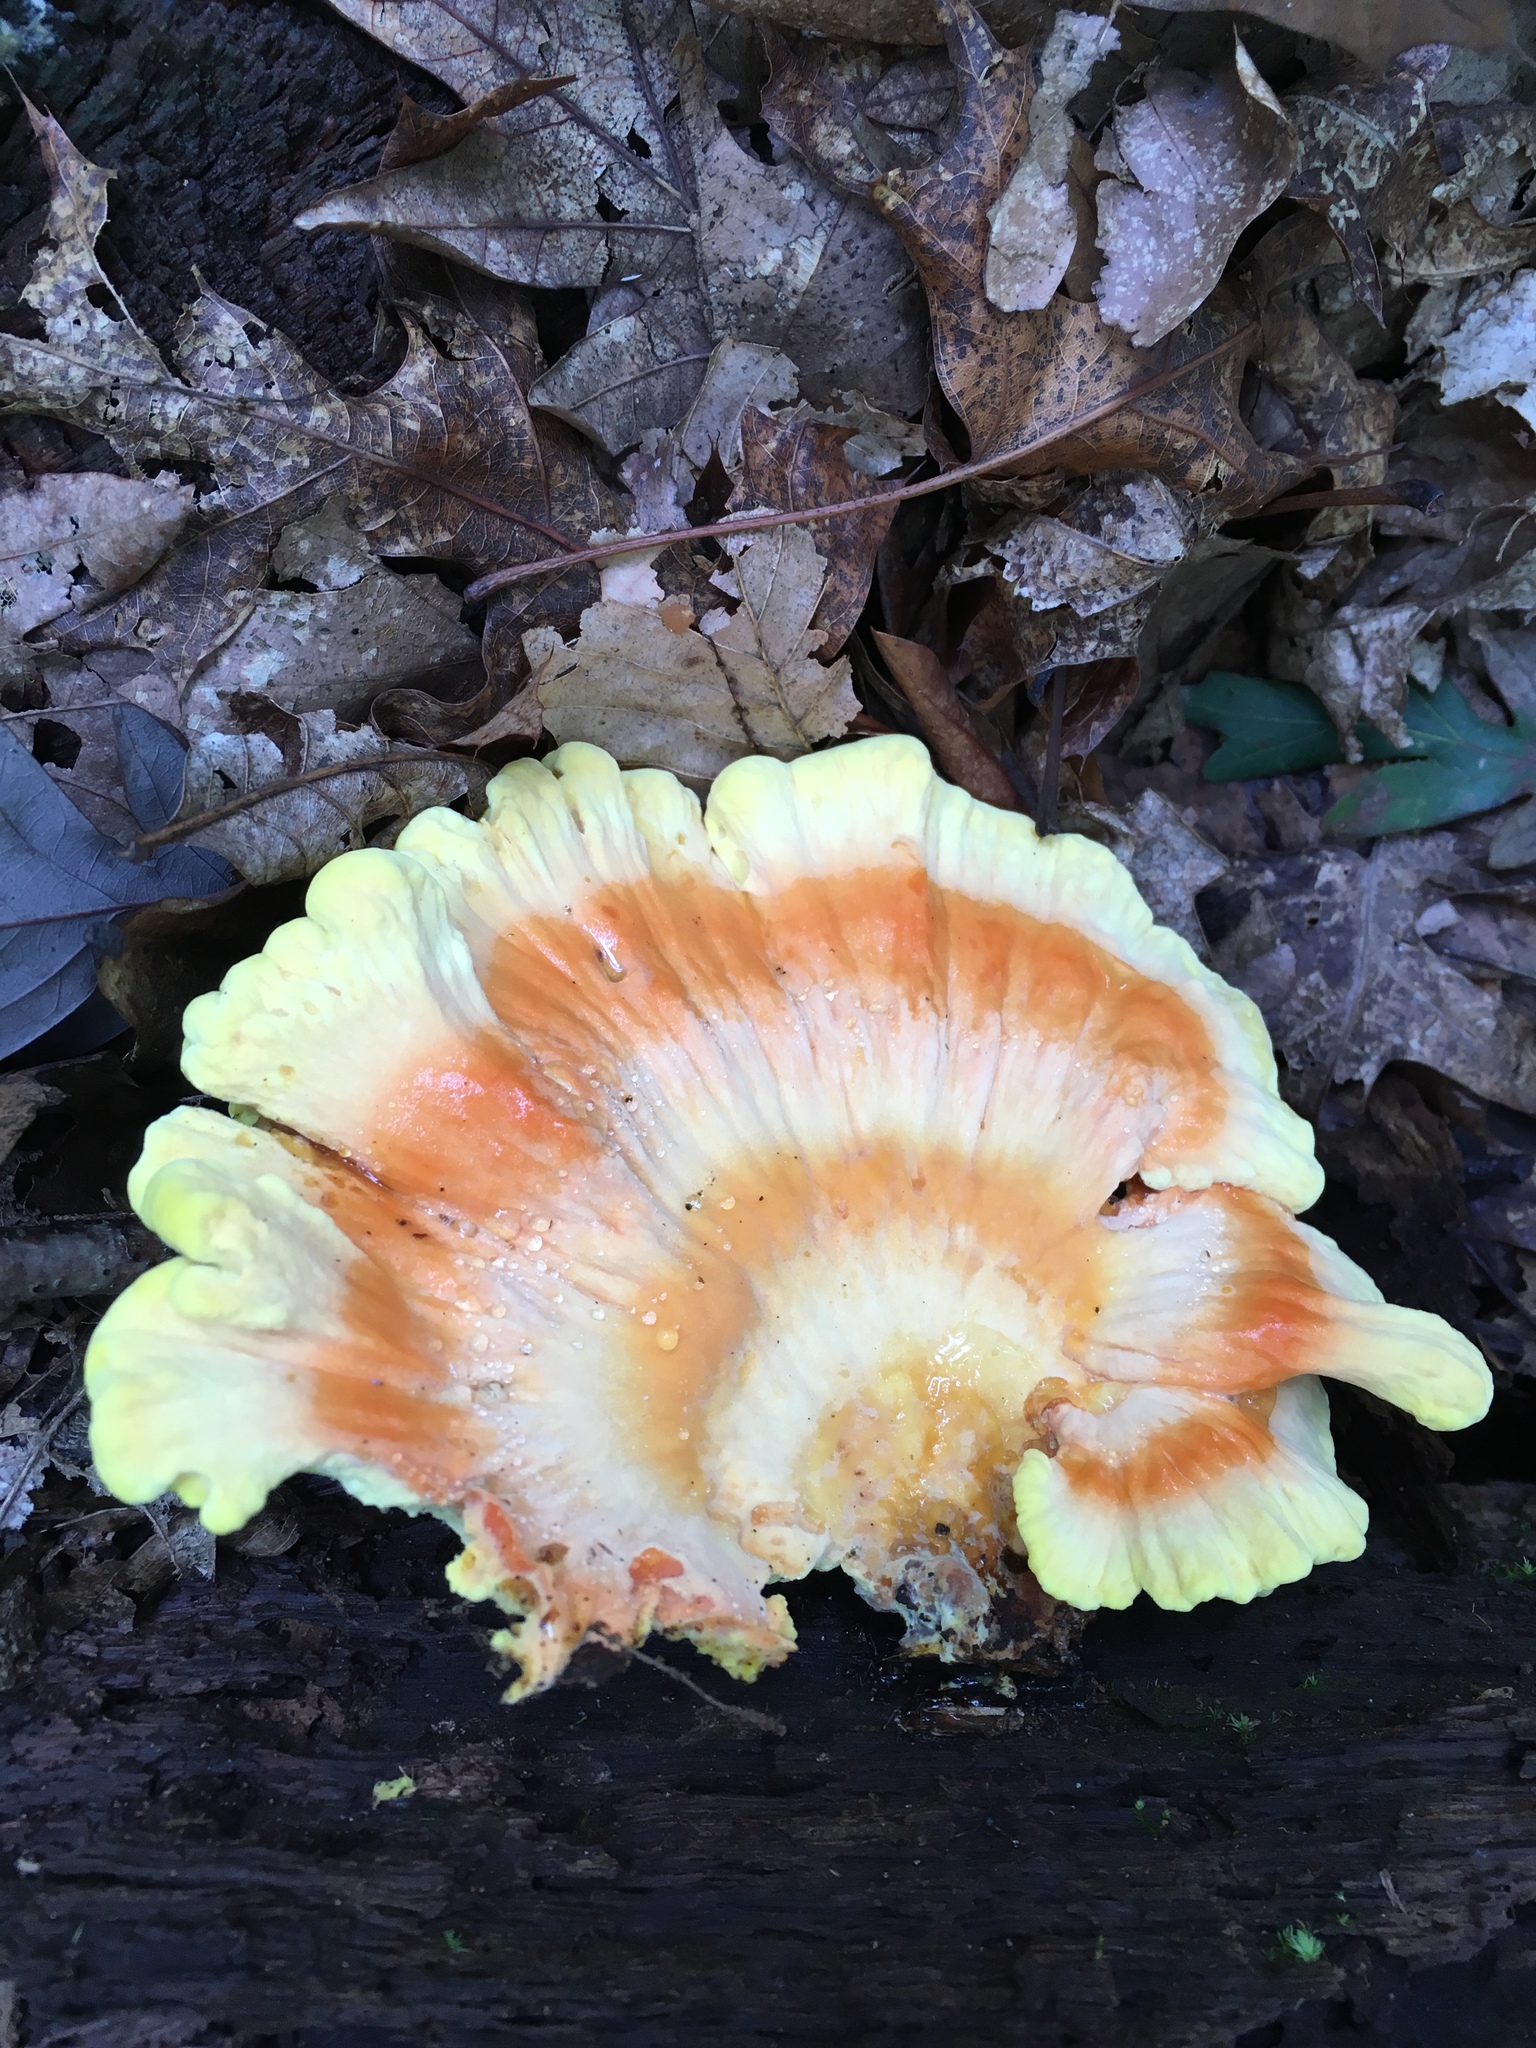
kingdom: Fungi
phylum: Basidiomycota
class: Agaricomycetes
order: Polyporales
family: Laetiporaceae
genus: Laetiporus
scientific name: Laetiporus sulphureus
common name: Chicken of the woods
